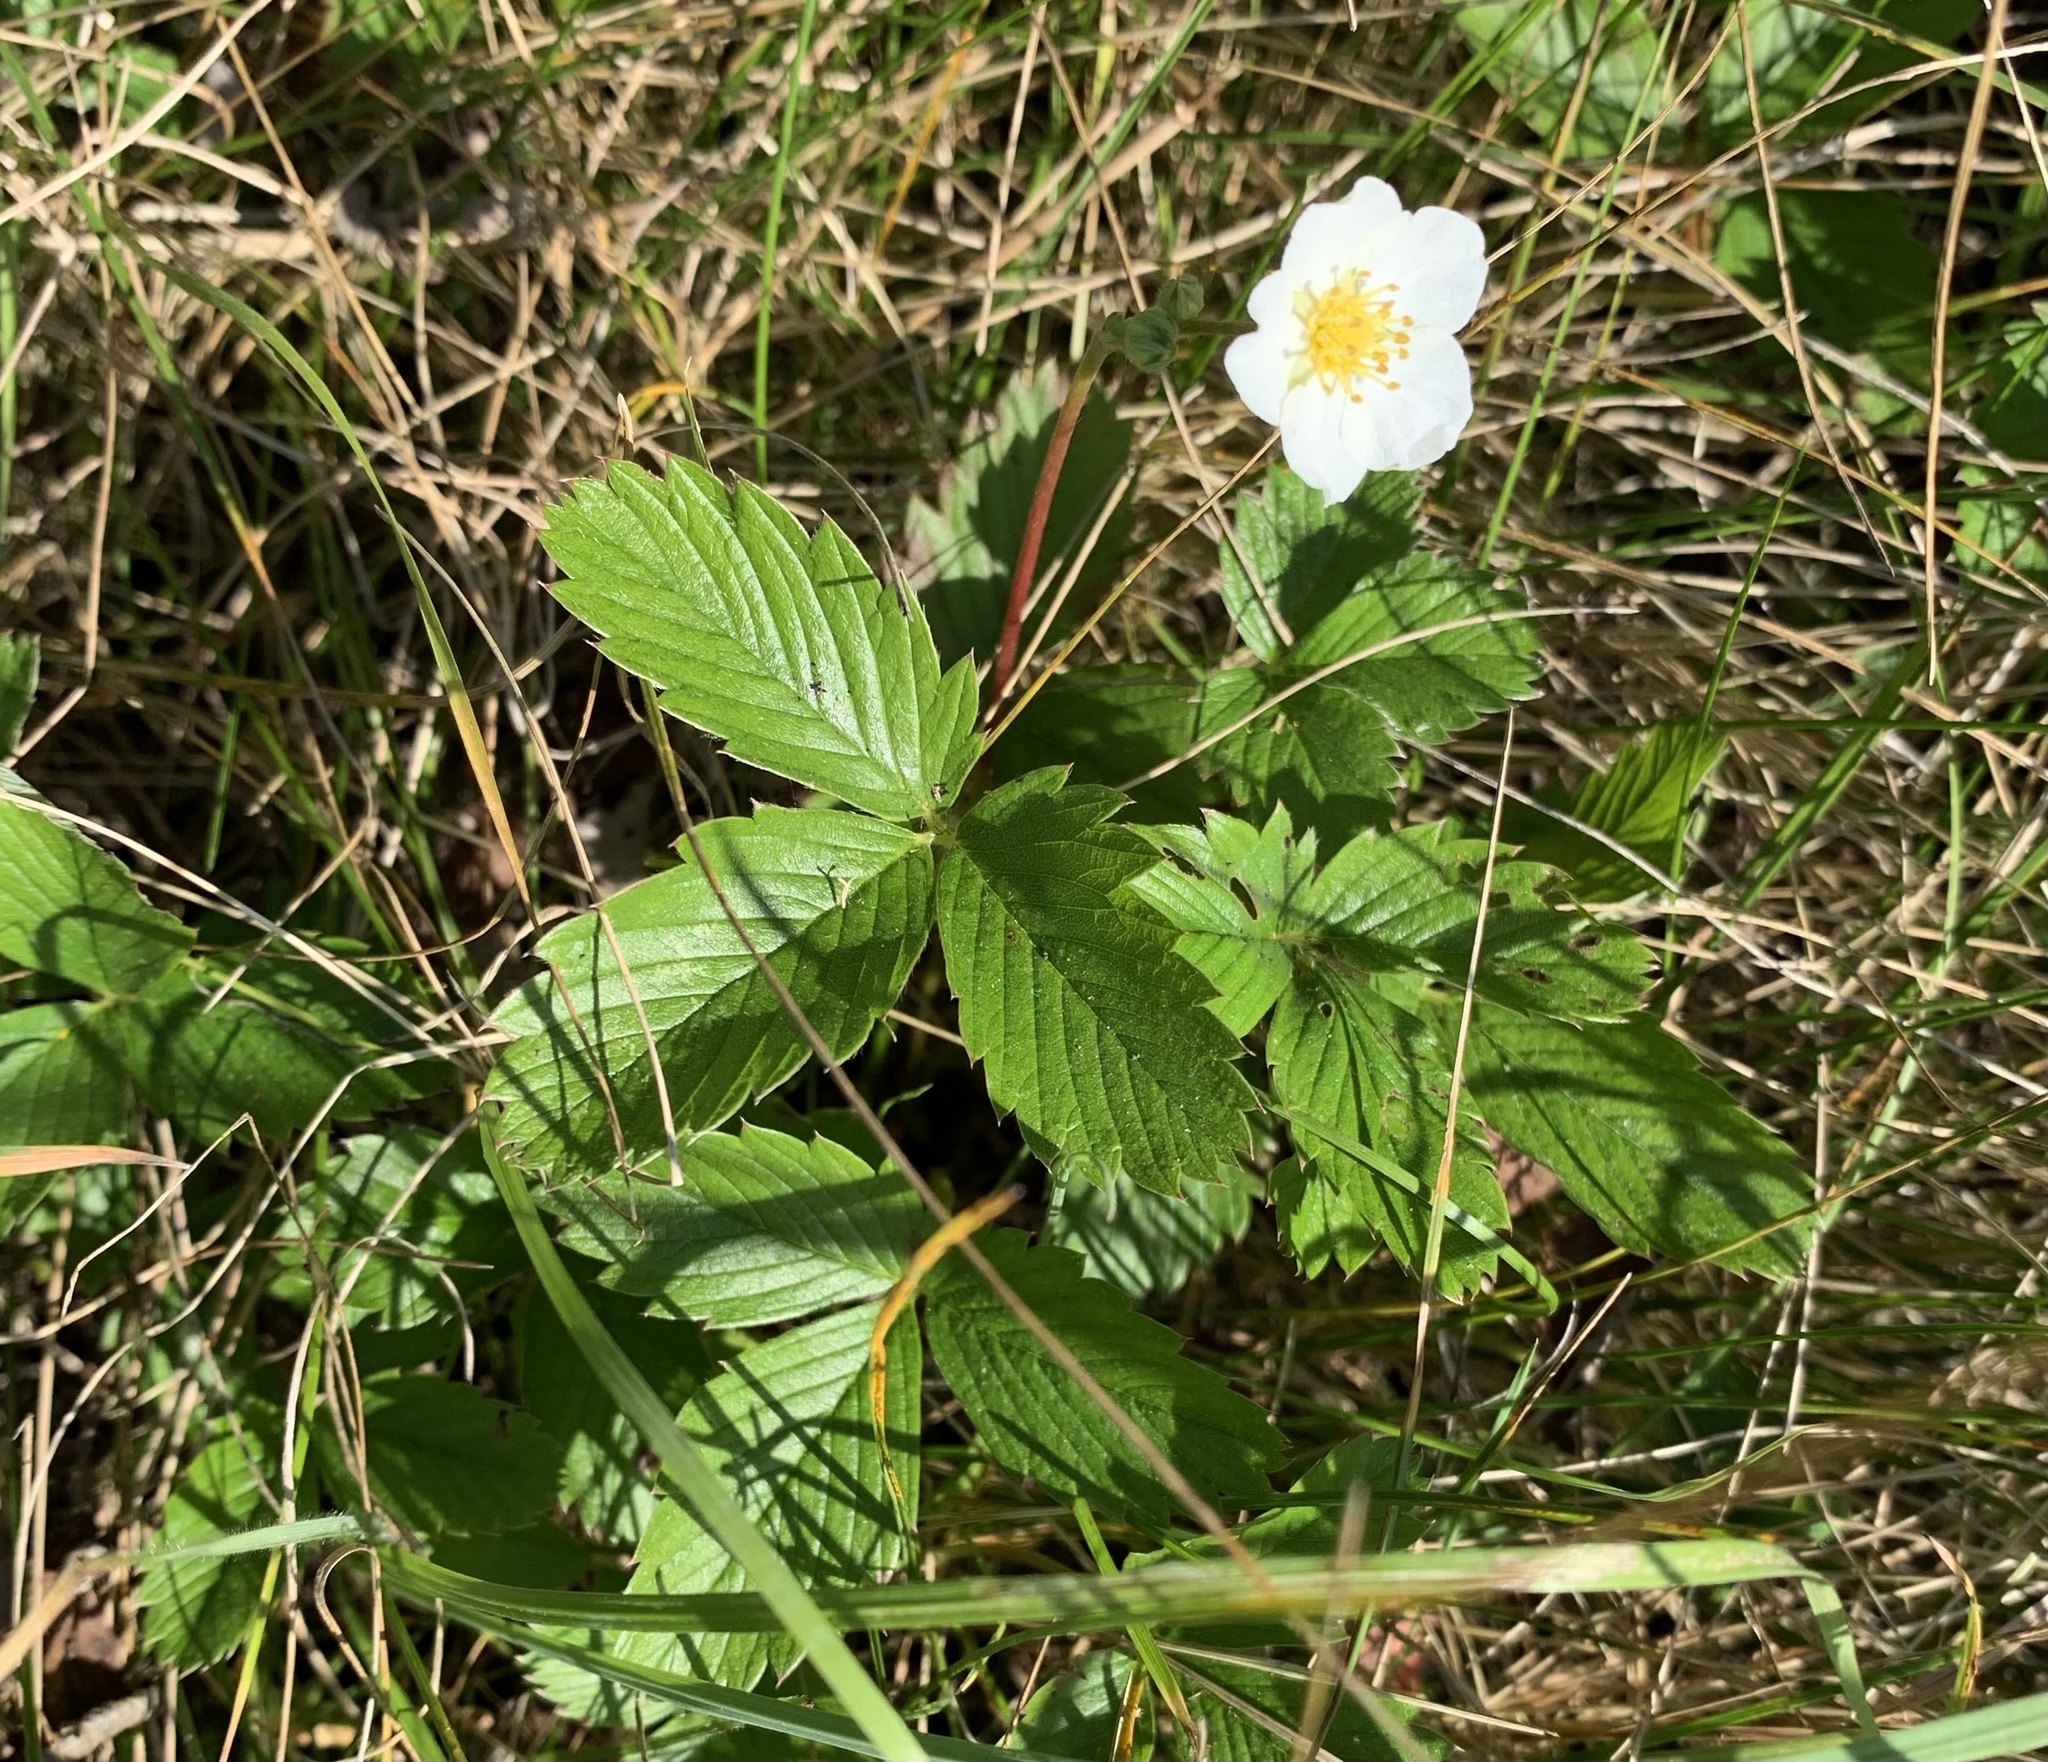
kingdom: Plantae
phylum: Tracheophyta
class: Magnoliopsida
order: Rosales
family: Rosaceae
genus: Fragaria
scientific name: Fragaria viridis
